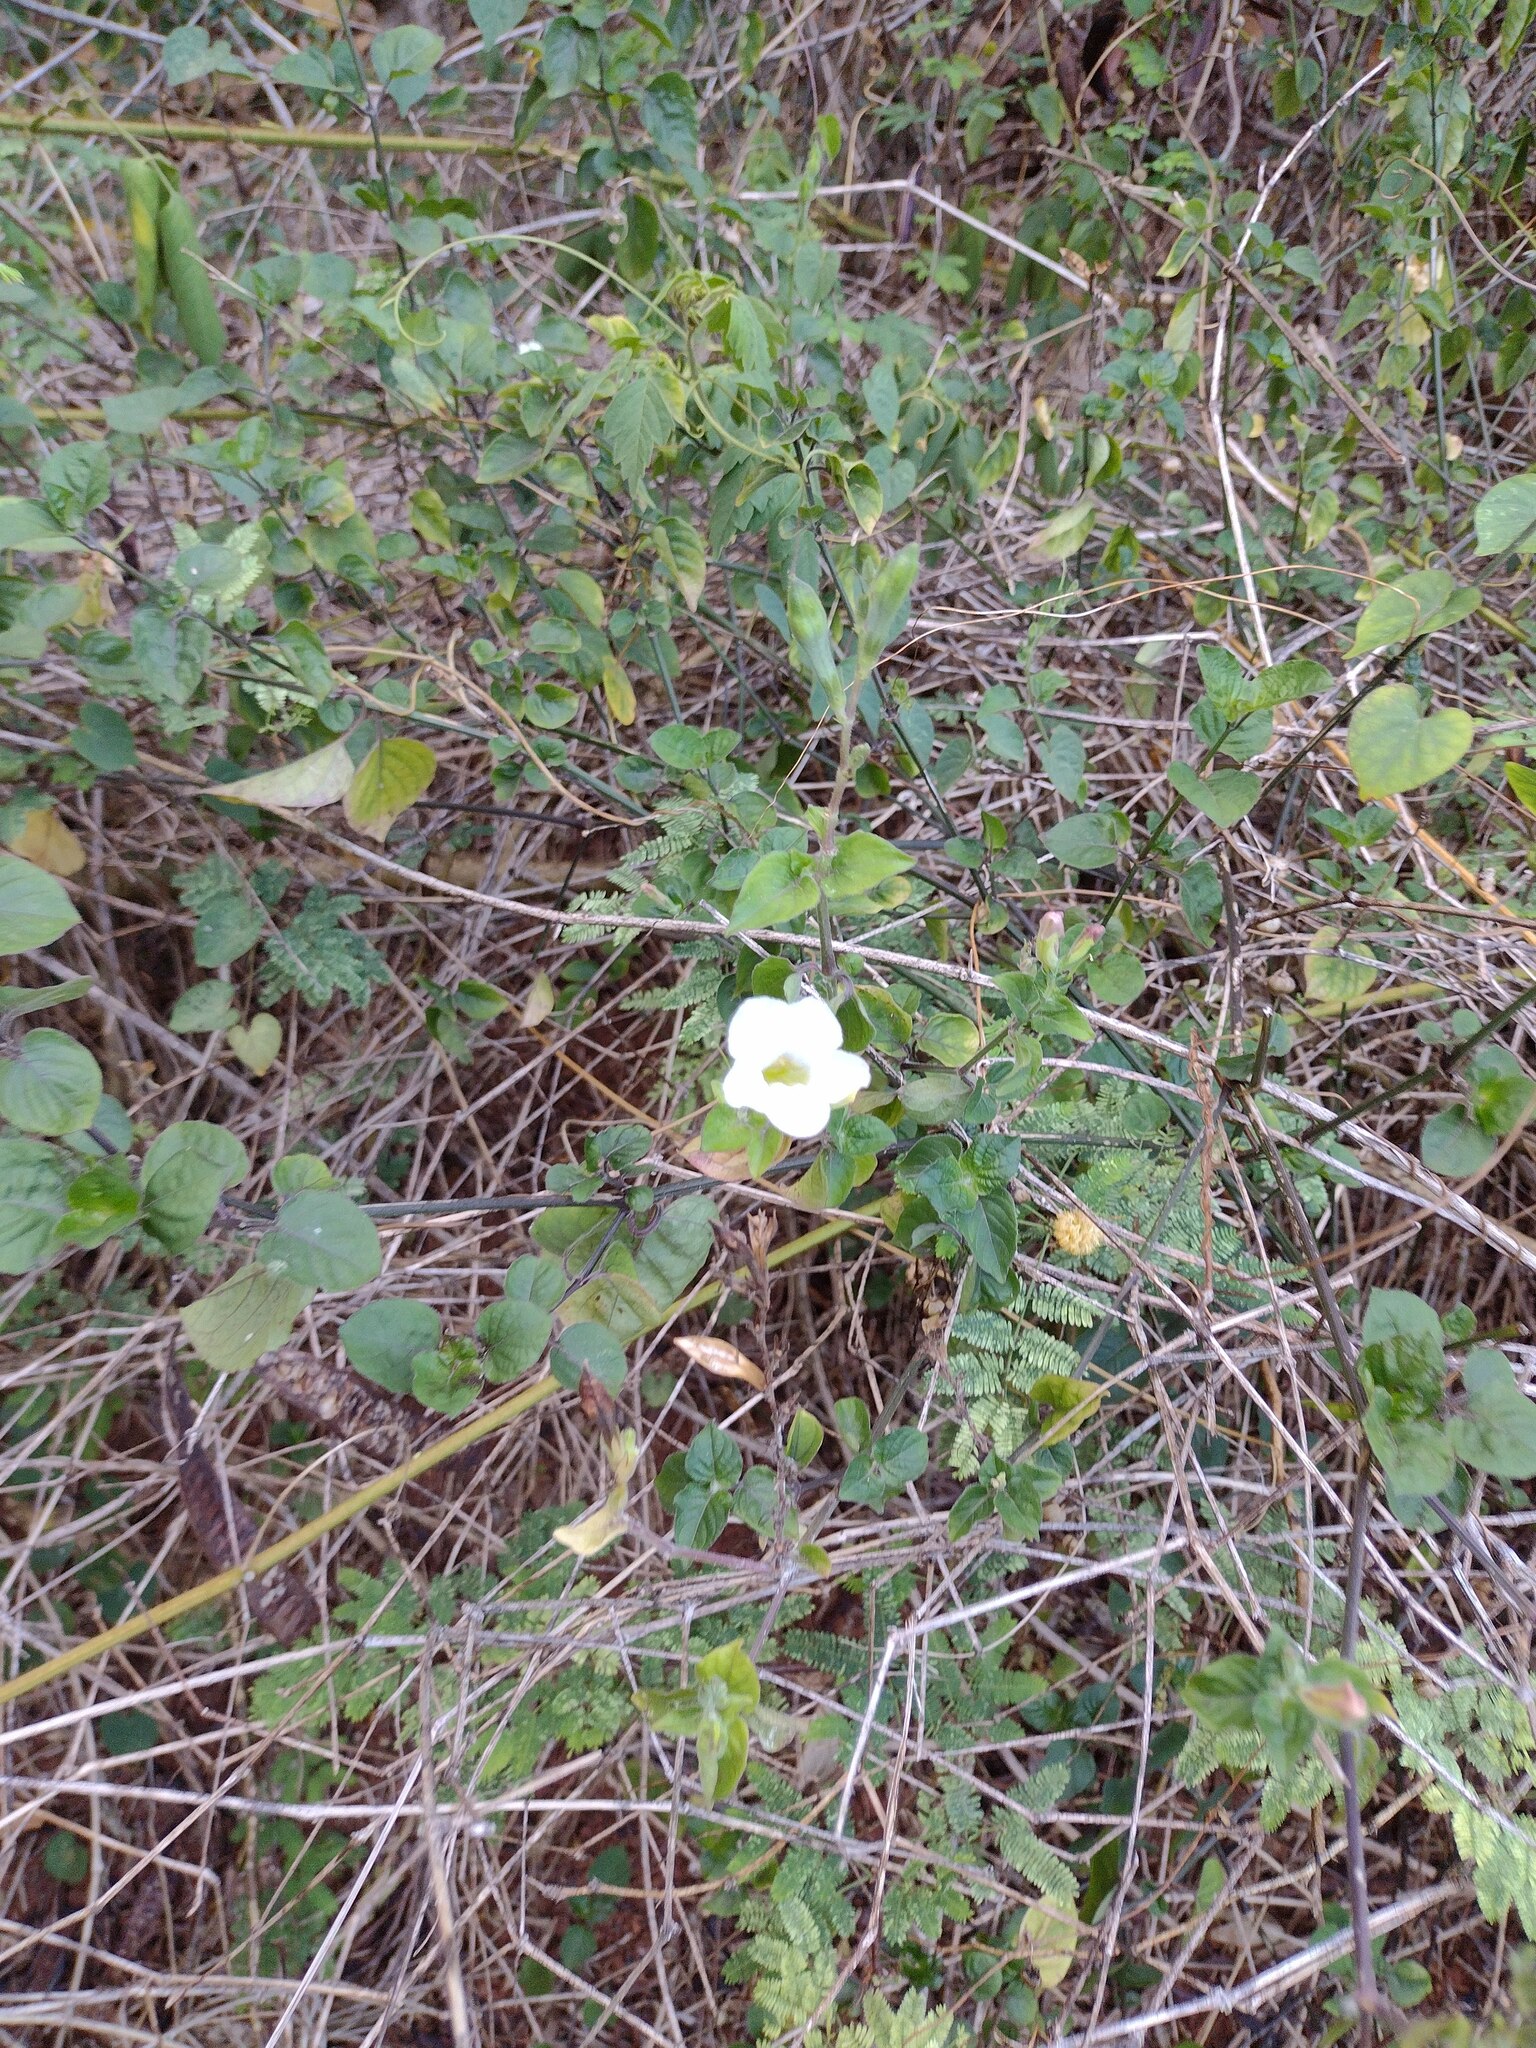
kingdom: Plantae
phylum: Tracheophyta
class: Magnoliopsida
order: Lamiales
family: Acanthaceae
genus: Asystasia
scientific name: Asystasia gangetica
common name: Chinese violet
